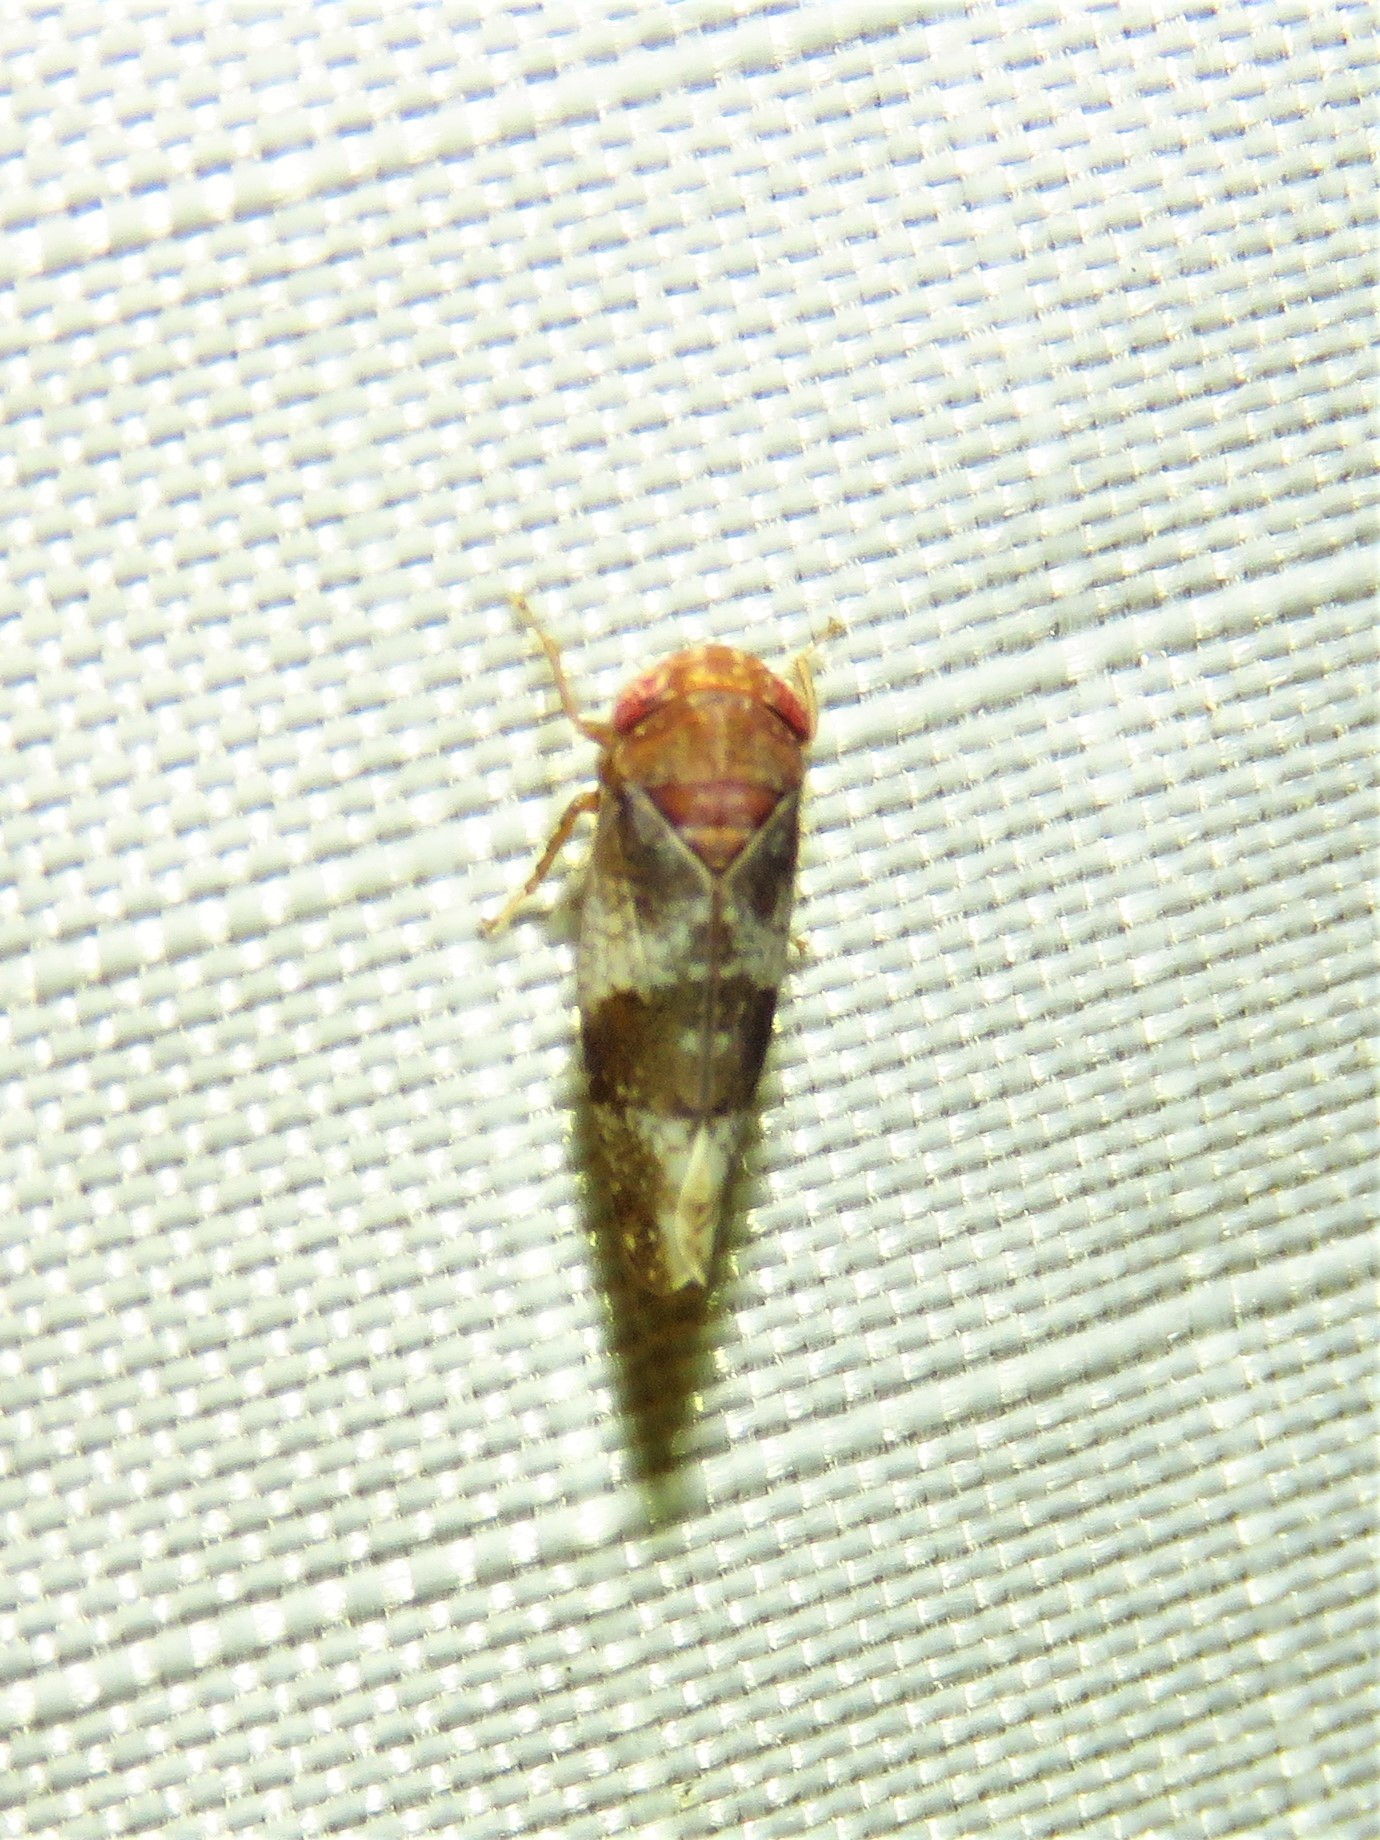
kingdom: Animalia
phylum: Arthropoda
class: Insecta
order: Hemiptera
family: Cicadellidae
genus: Norvellina
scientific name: Norvellina helenae
